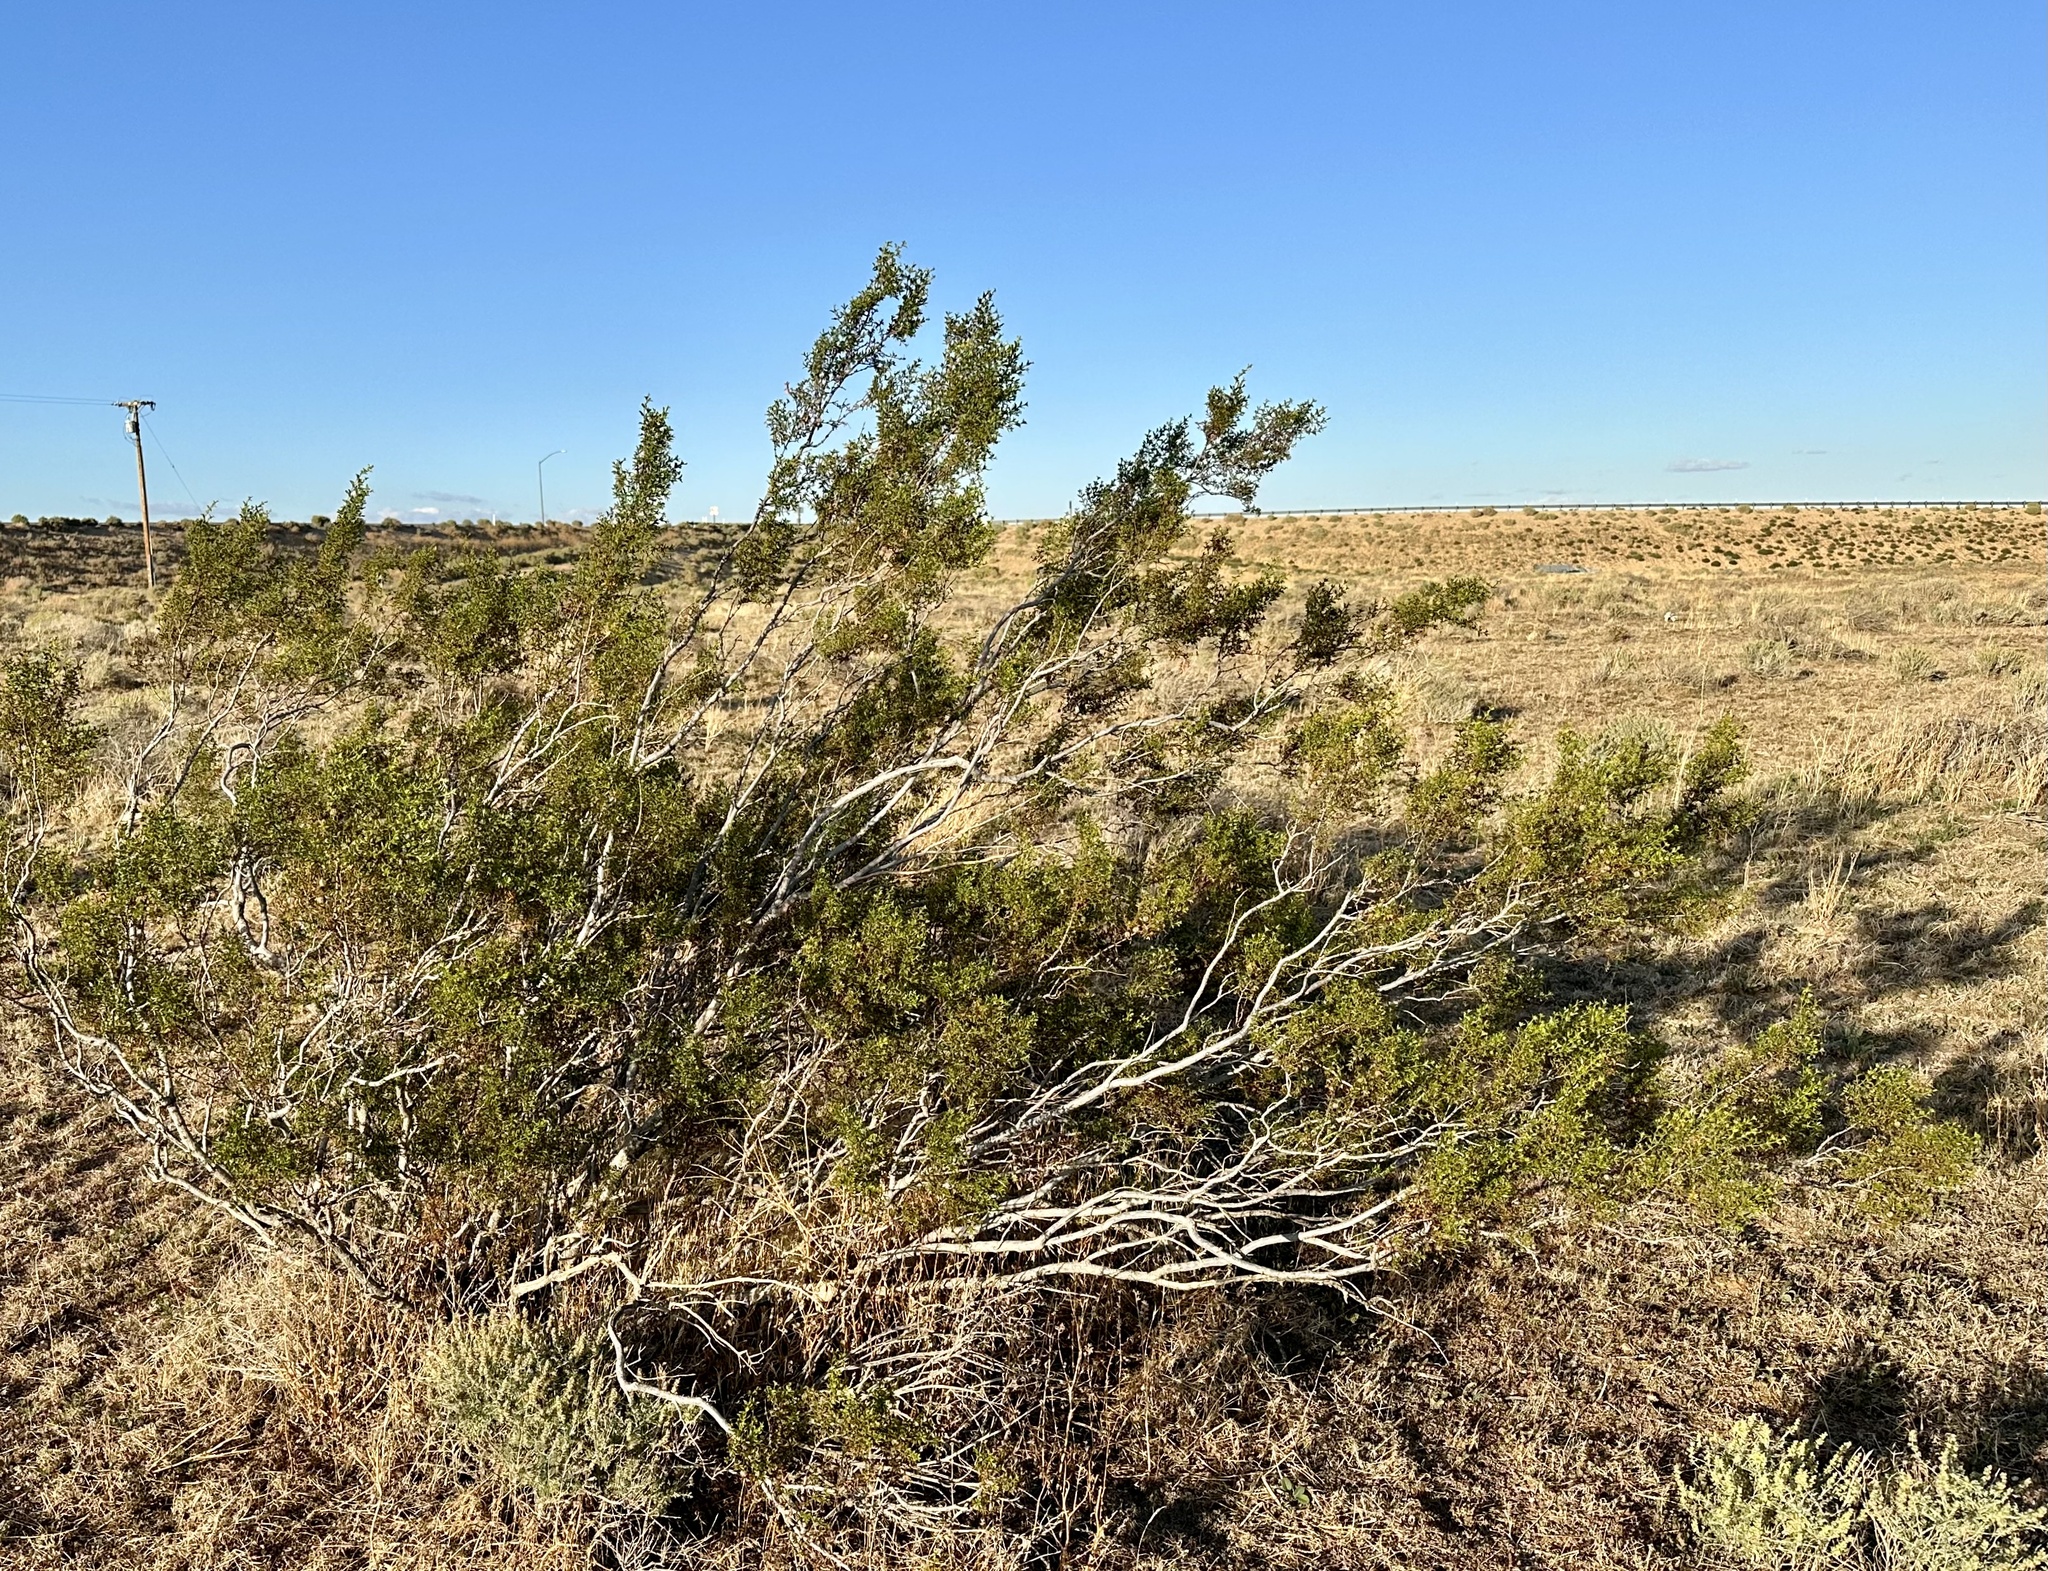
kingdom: Plantae
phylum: Tracheophyta
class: Magnoliopsida
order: Zygophyllales
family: Zygophyllaceae
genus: Larrea
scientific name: Larrea tridentata
